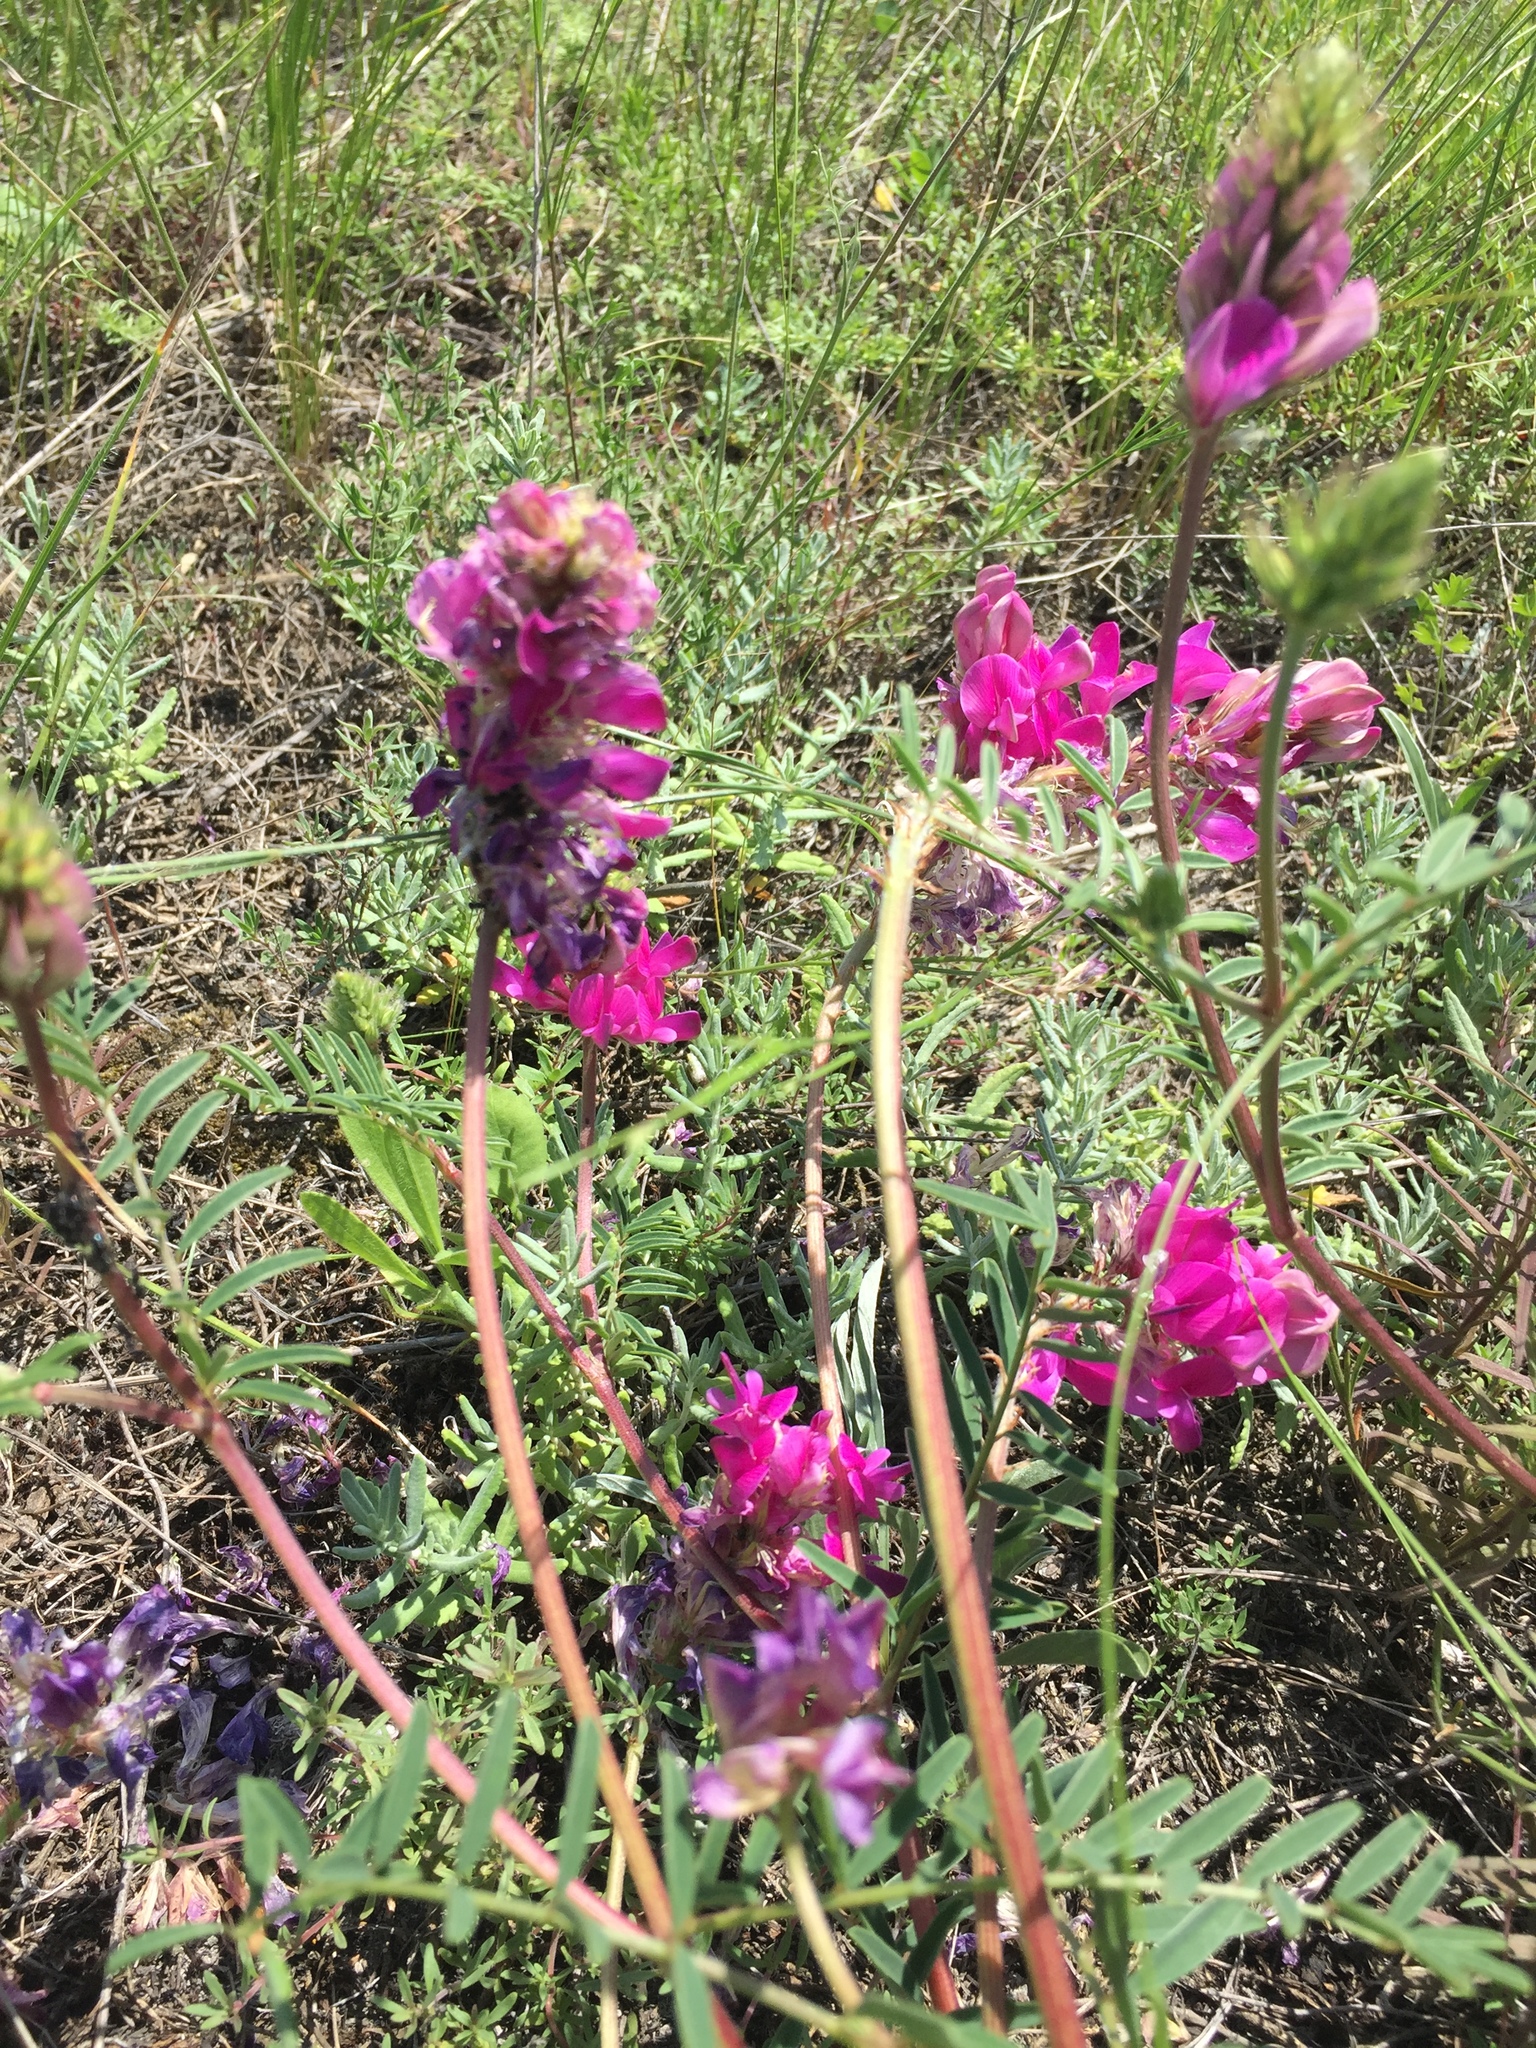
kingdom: Plantae
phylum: Tracheophyta
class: Magnoliopsida
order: Fabales
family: Fabaceae
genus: Hedysarum
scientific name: Hedysarum ucrainicum
